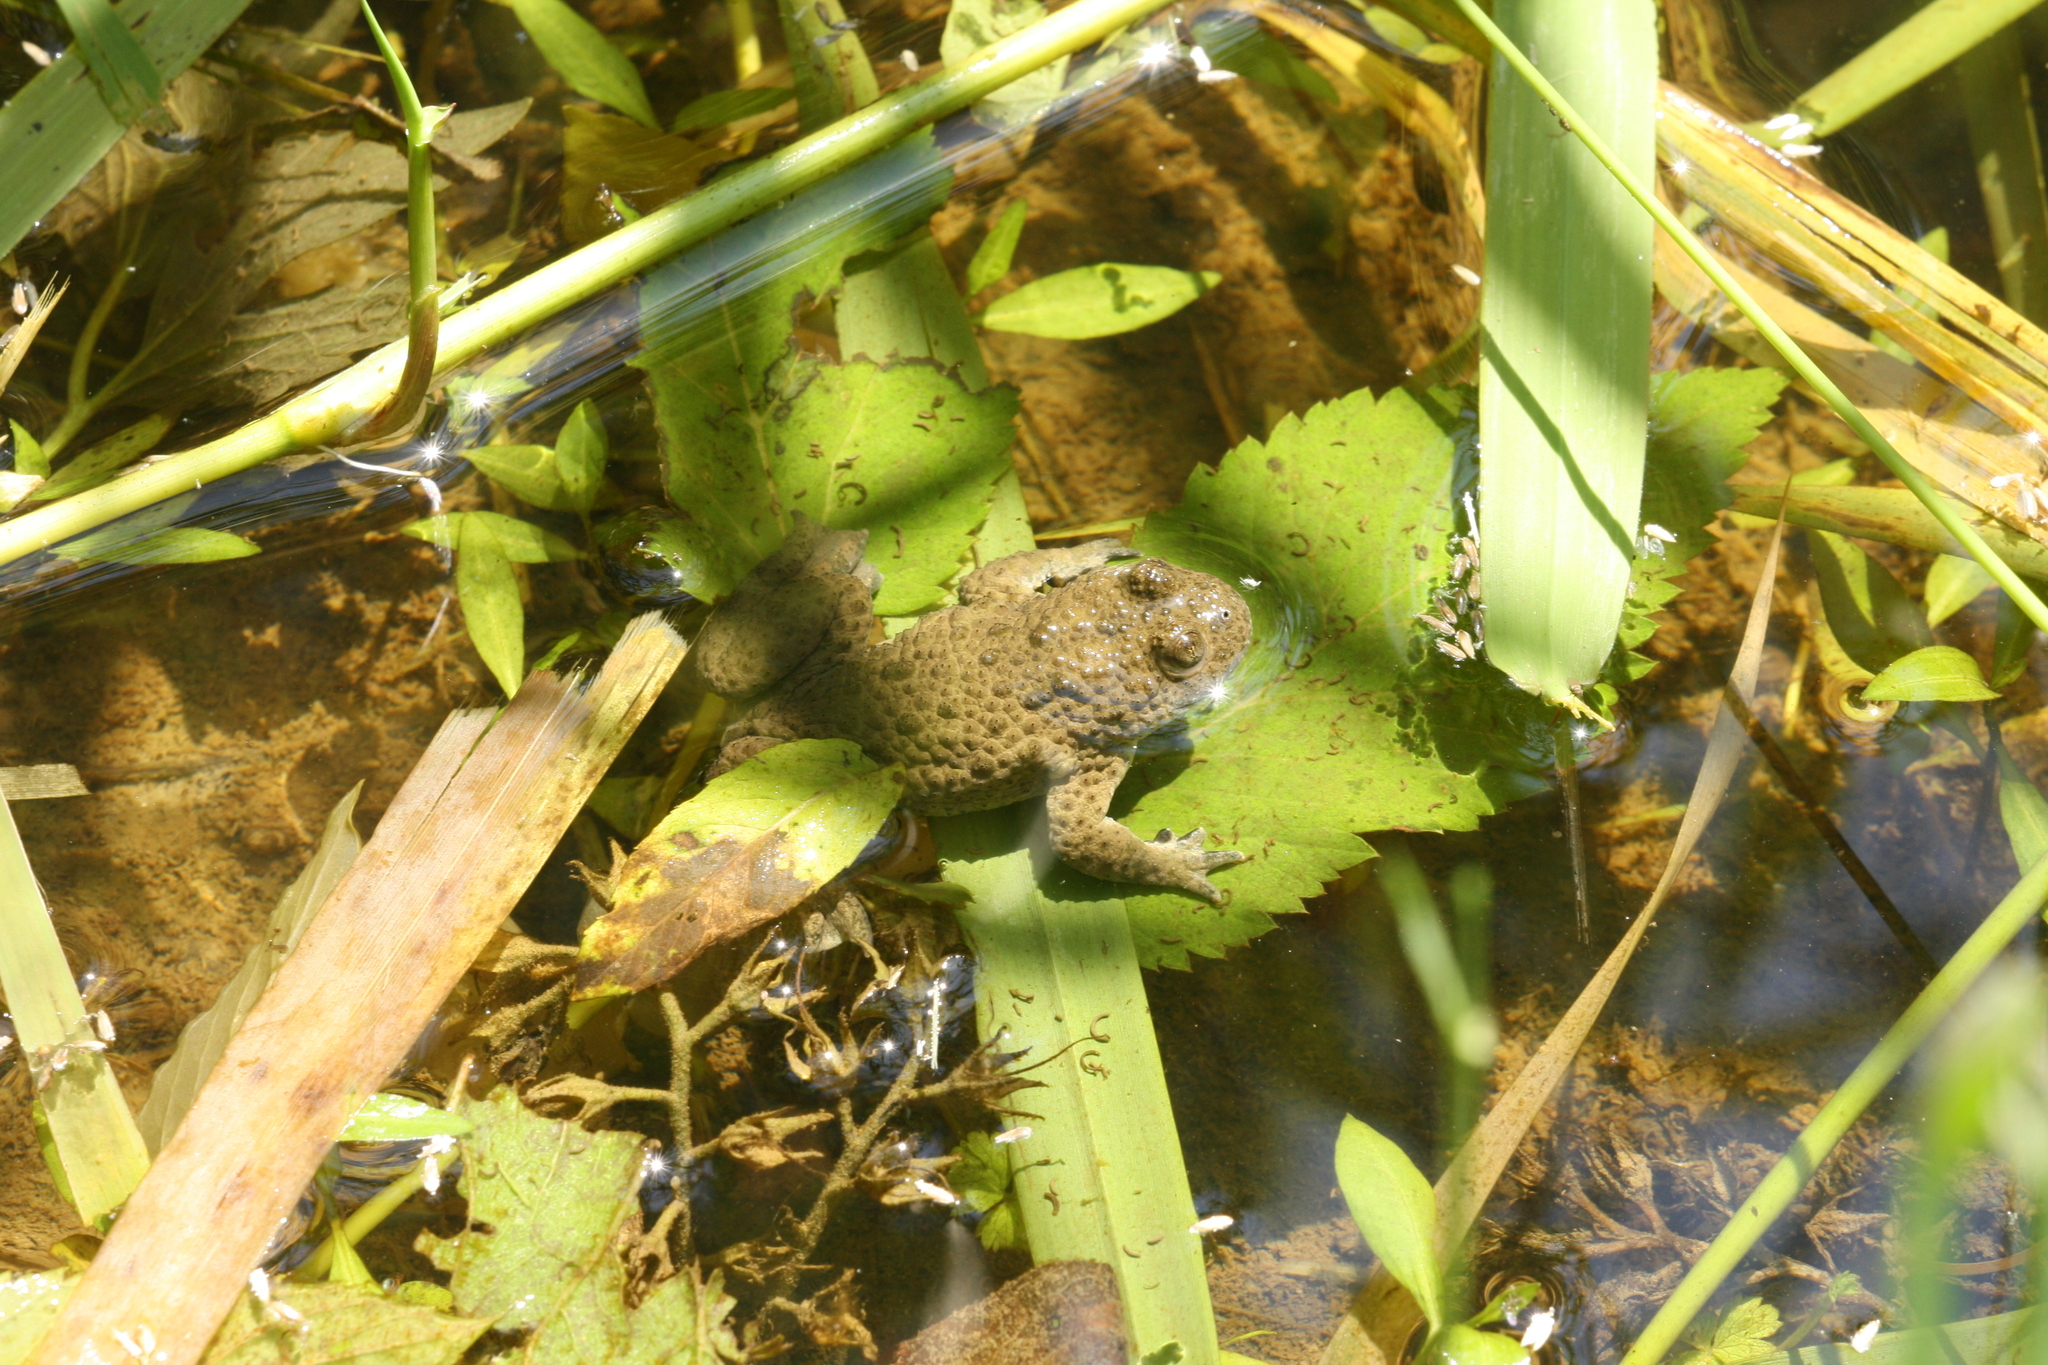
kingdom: Animalia
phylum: Chordata
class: Amphibia
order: Anura
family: Bombinatoridae
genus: Bombina
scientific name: Bombina variegata
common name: Yellow-bellied toad
